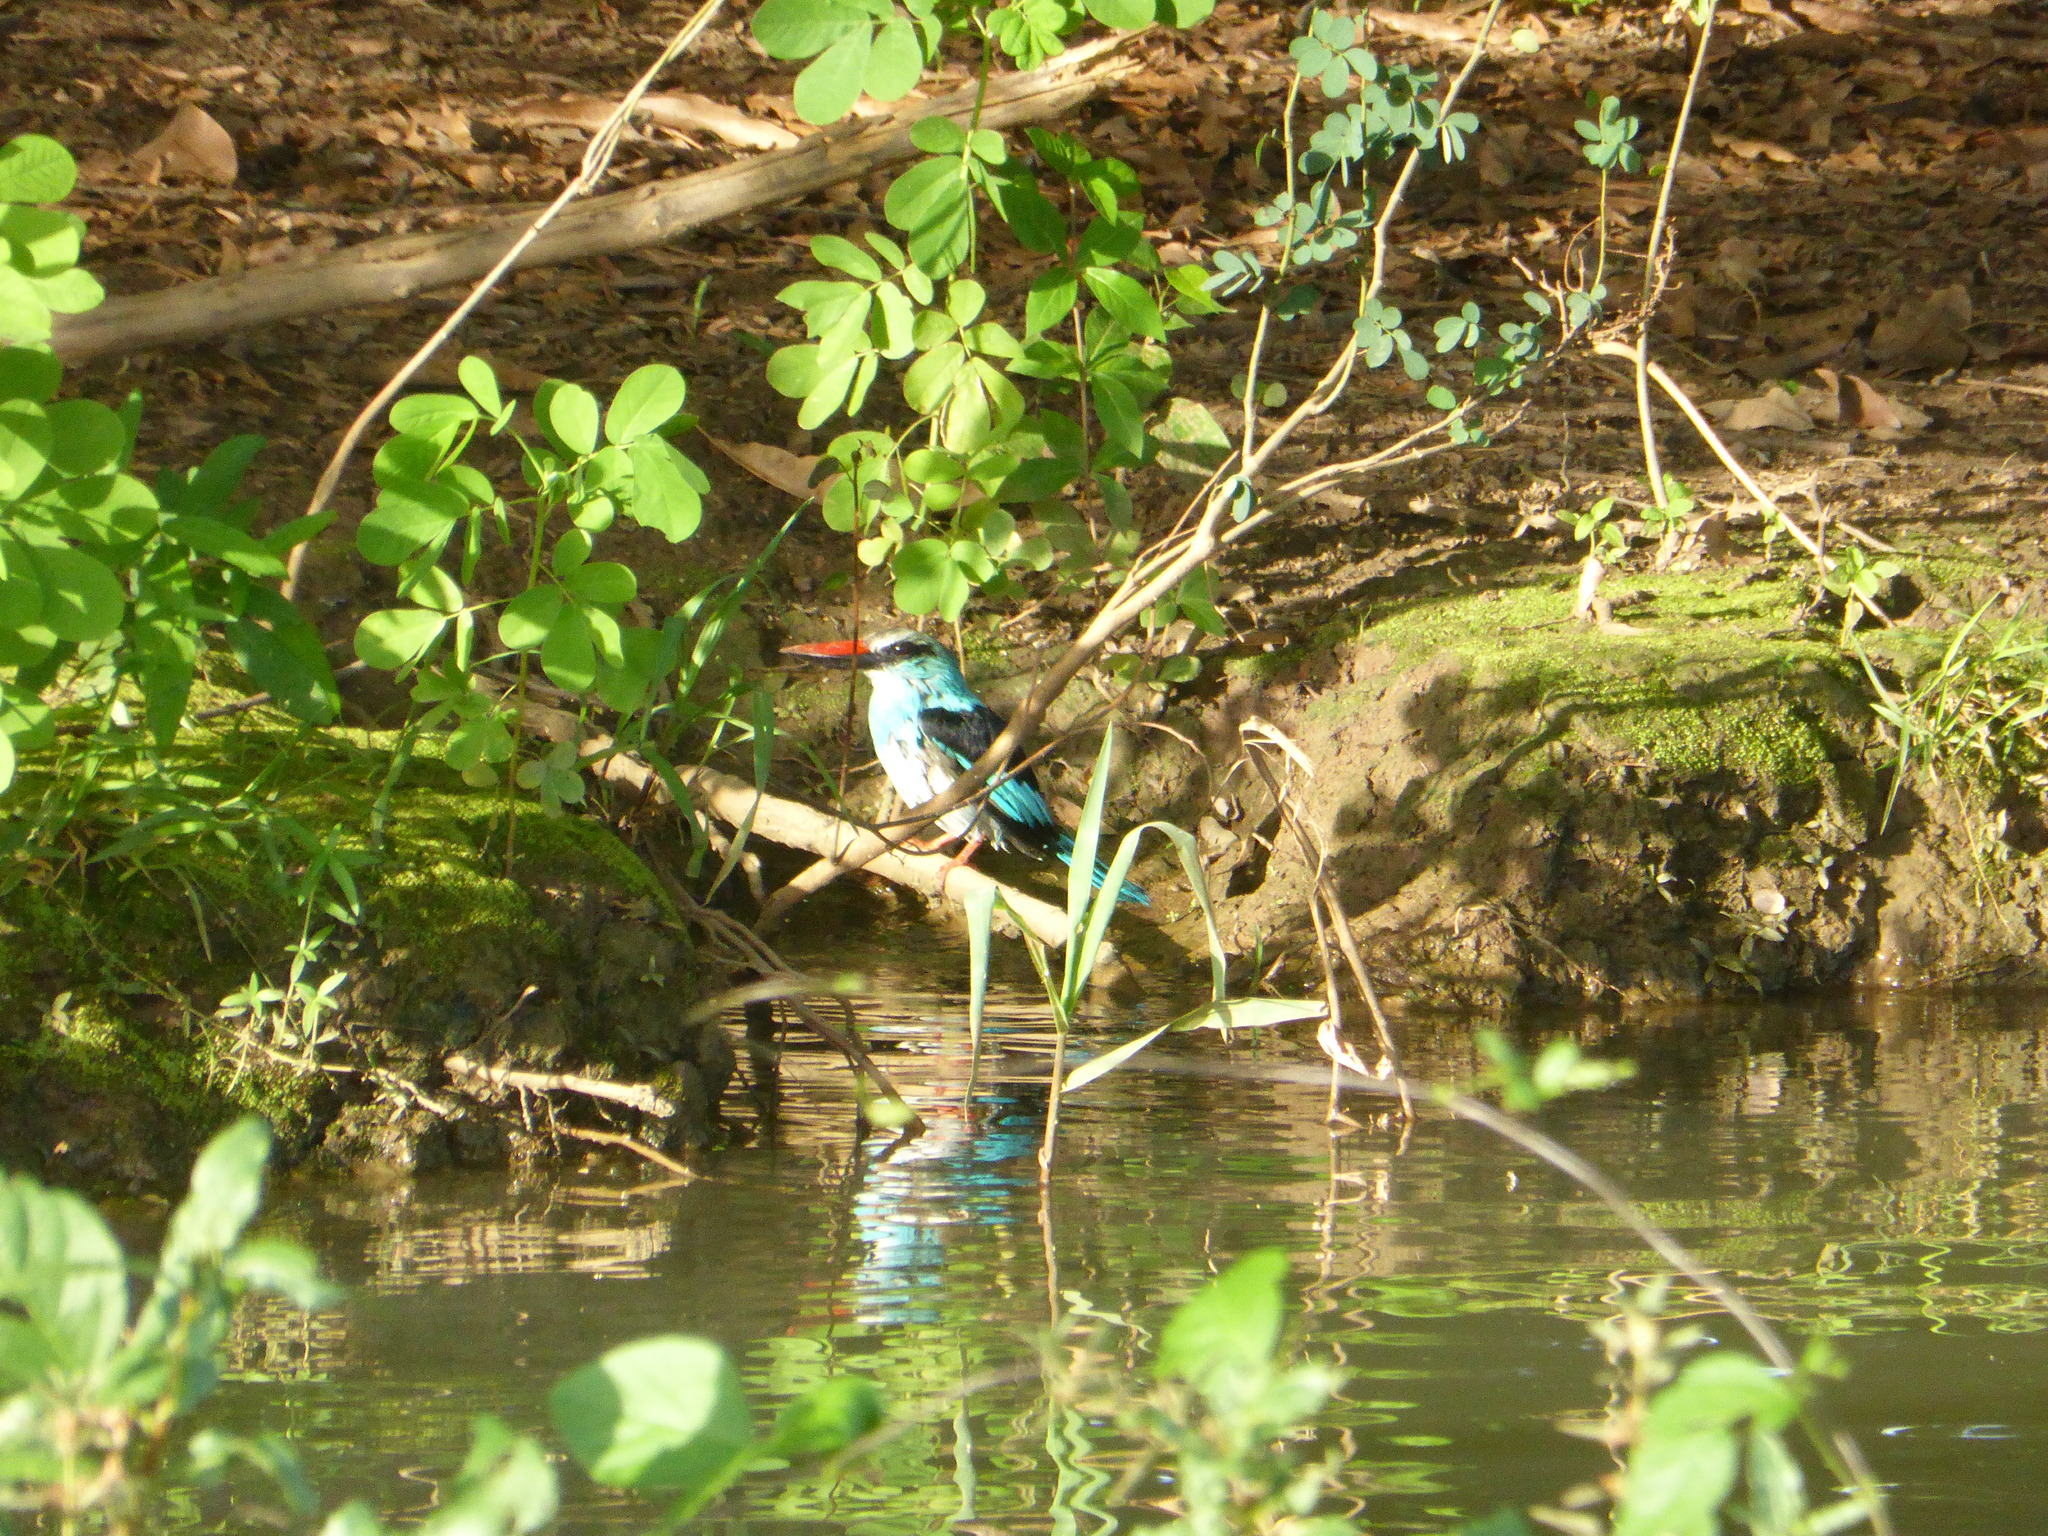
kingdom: Animalia
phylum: Chordata
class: Aves
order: Coraciiformes
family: Alcedinidae
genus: Halcyon
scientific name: Halcyon malimbica
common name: Blue-breasted kingfisher
